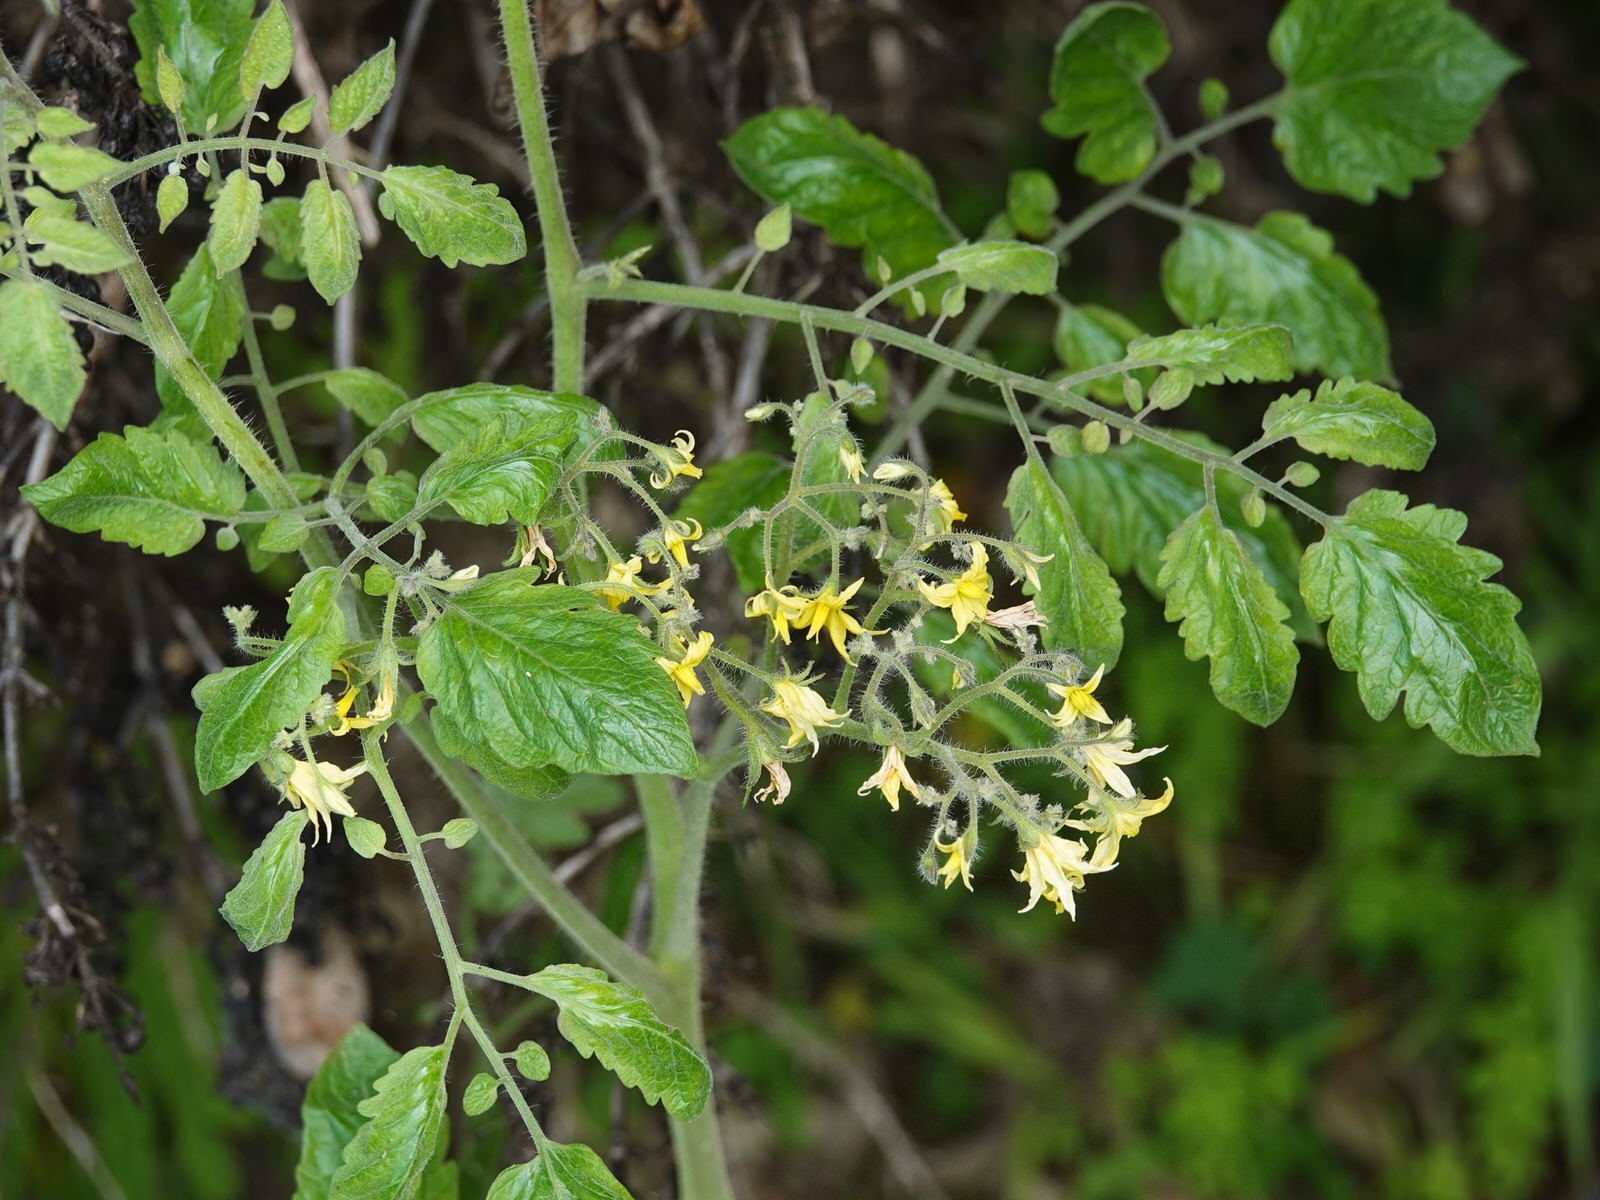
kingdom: Plantae
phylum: Tracheophyta
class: Magnoliopsida
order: Solanales
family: Solanaceae
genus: Solanum
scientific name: Solanum lycopersicum
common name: Garden tomato
